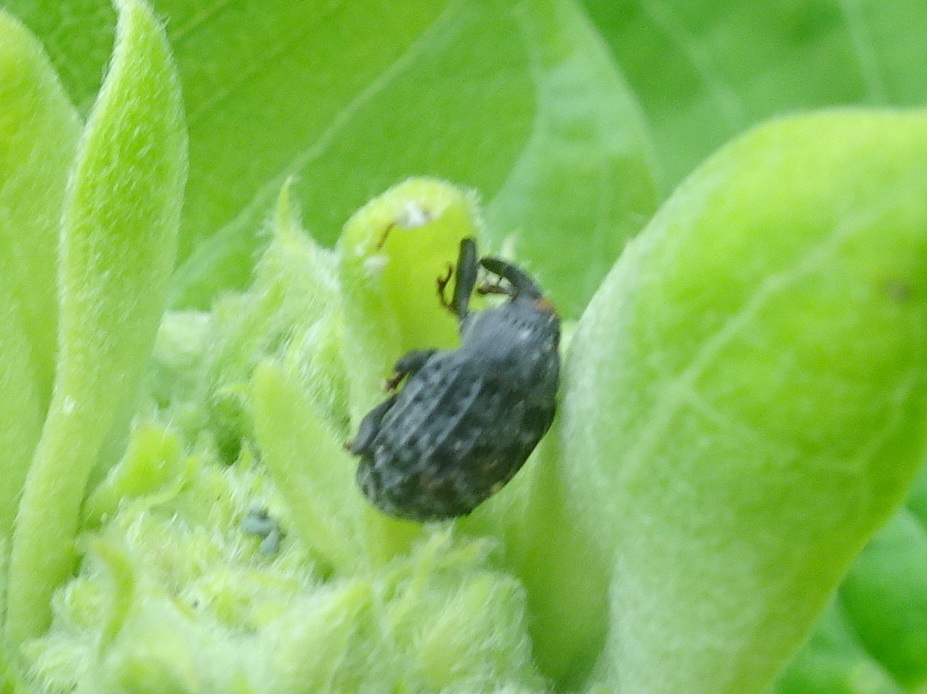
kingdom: Animalia
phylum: Arthropoda
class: Insecta
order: Coleoptera
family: Curculionidae
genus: Rhyssomatus
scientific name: Rhyssomatus lineaticollis
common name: Milkweed stem weevil
